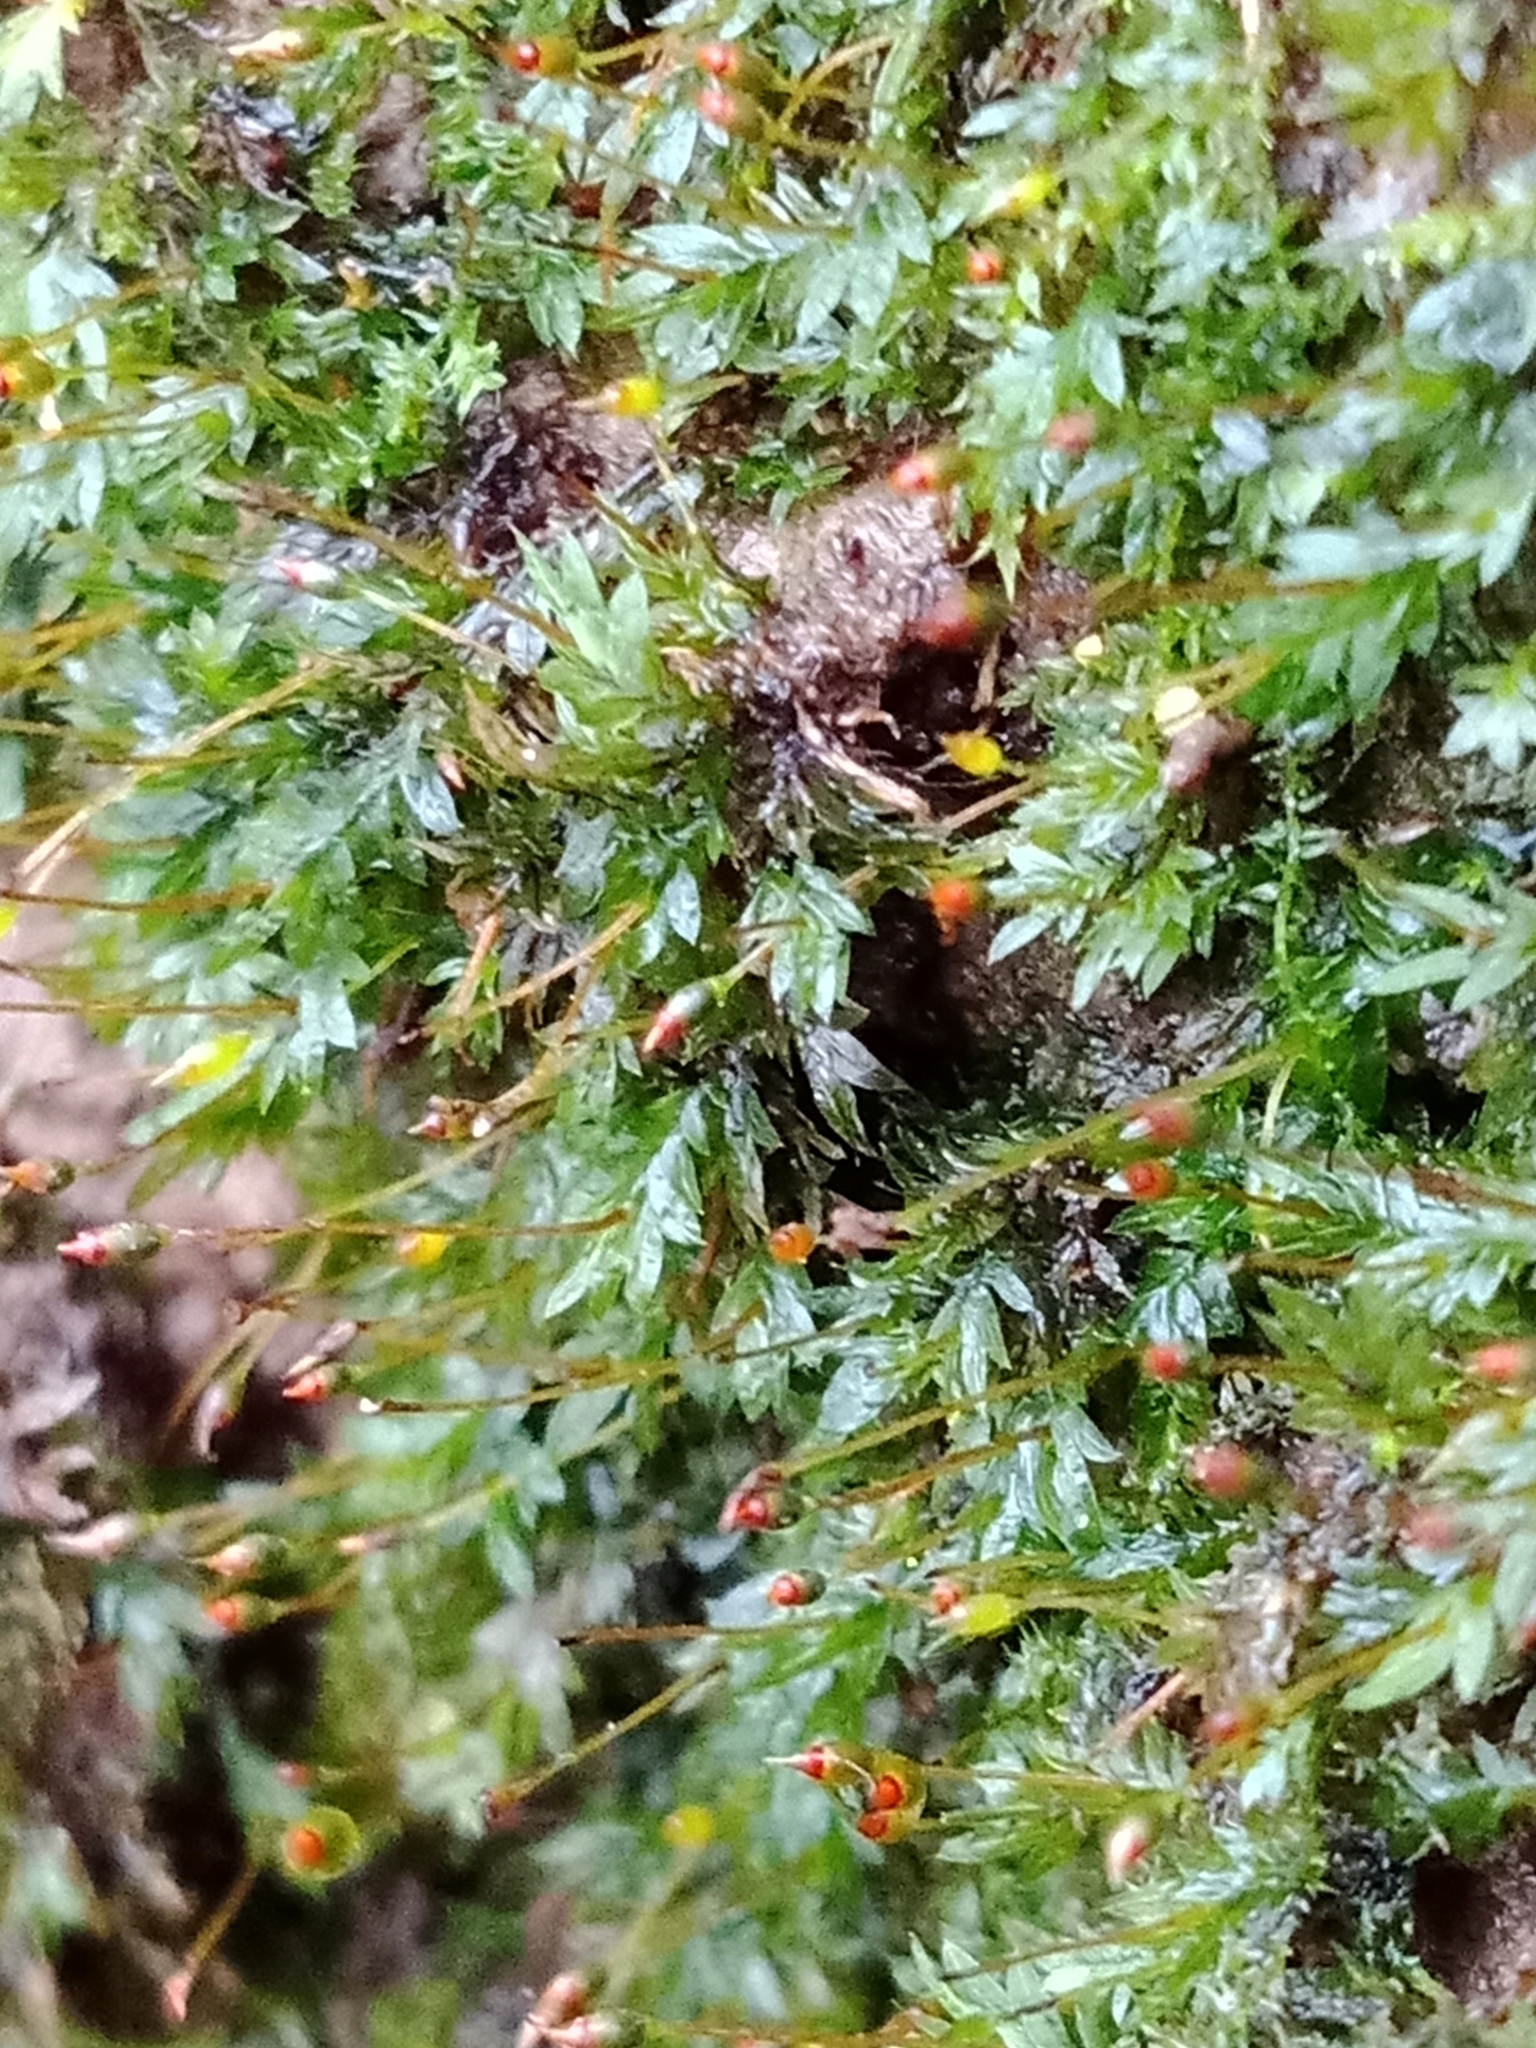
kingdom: Plantae
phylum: Bryophyta
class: Bryopsida
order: Dicranales
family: Fissidentaceae
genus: Fissidens
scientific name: Fissidens bryoides
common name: Lesser pocket moss
